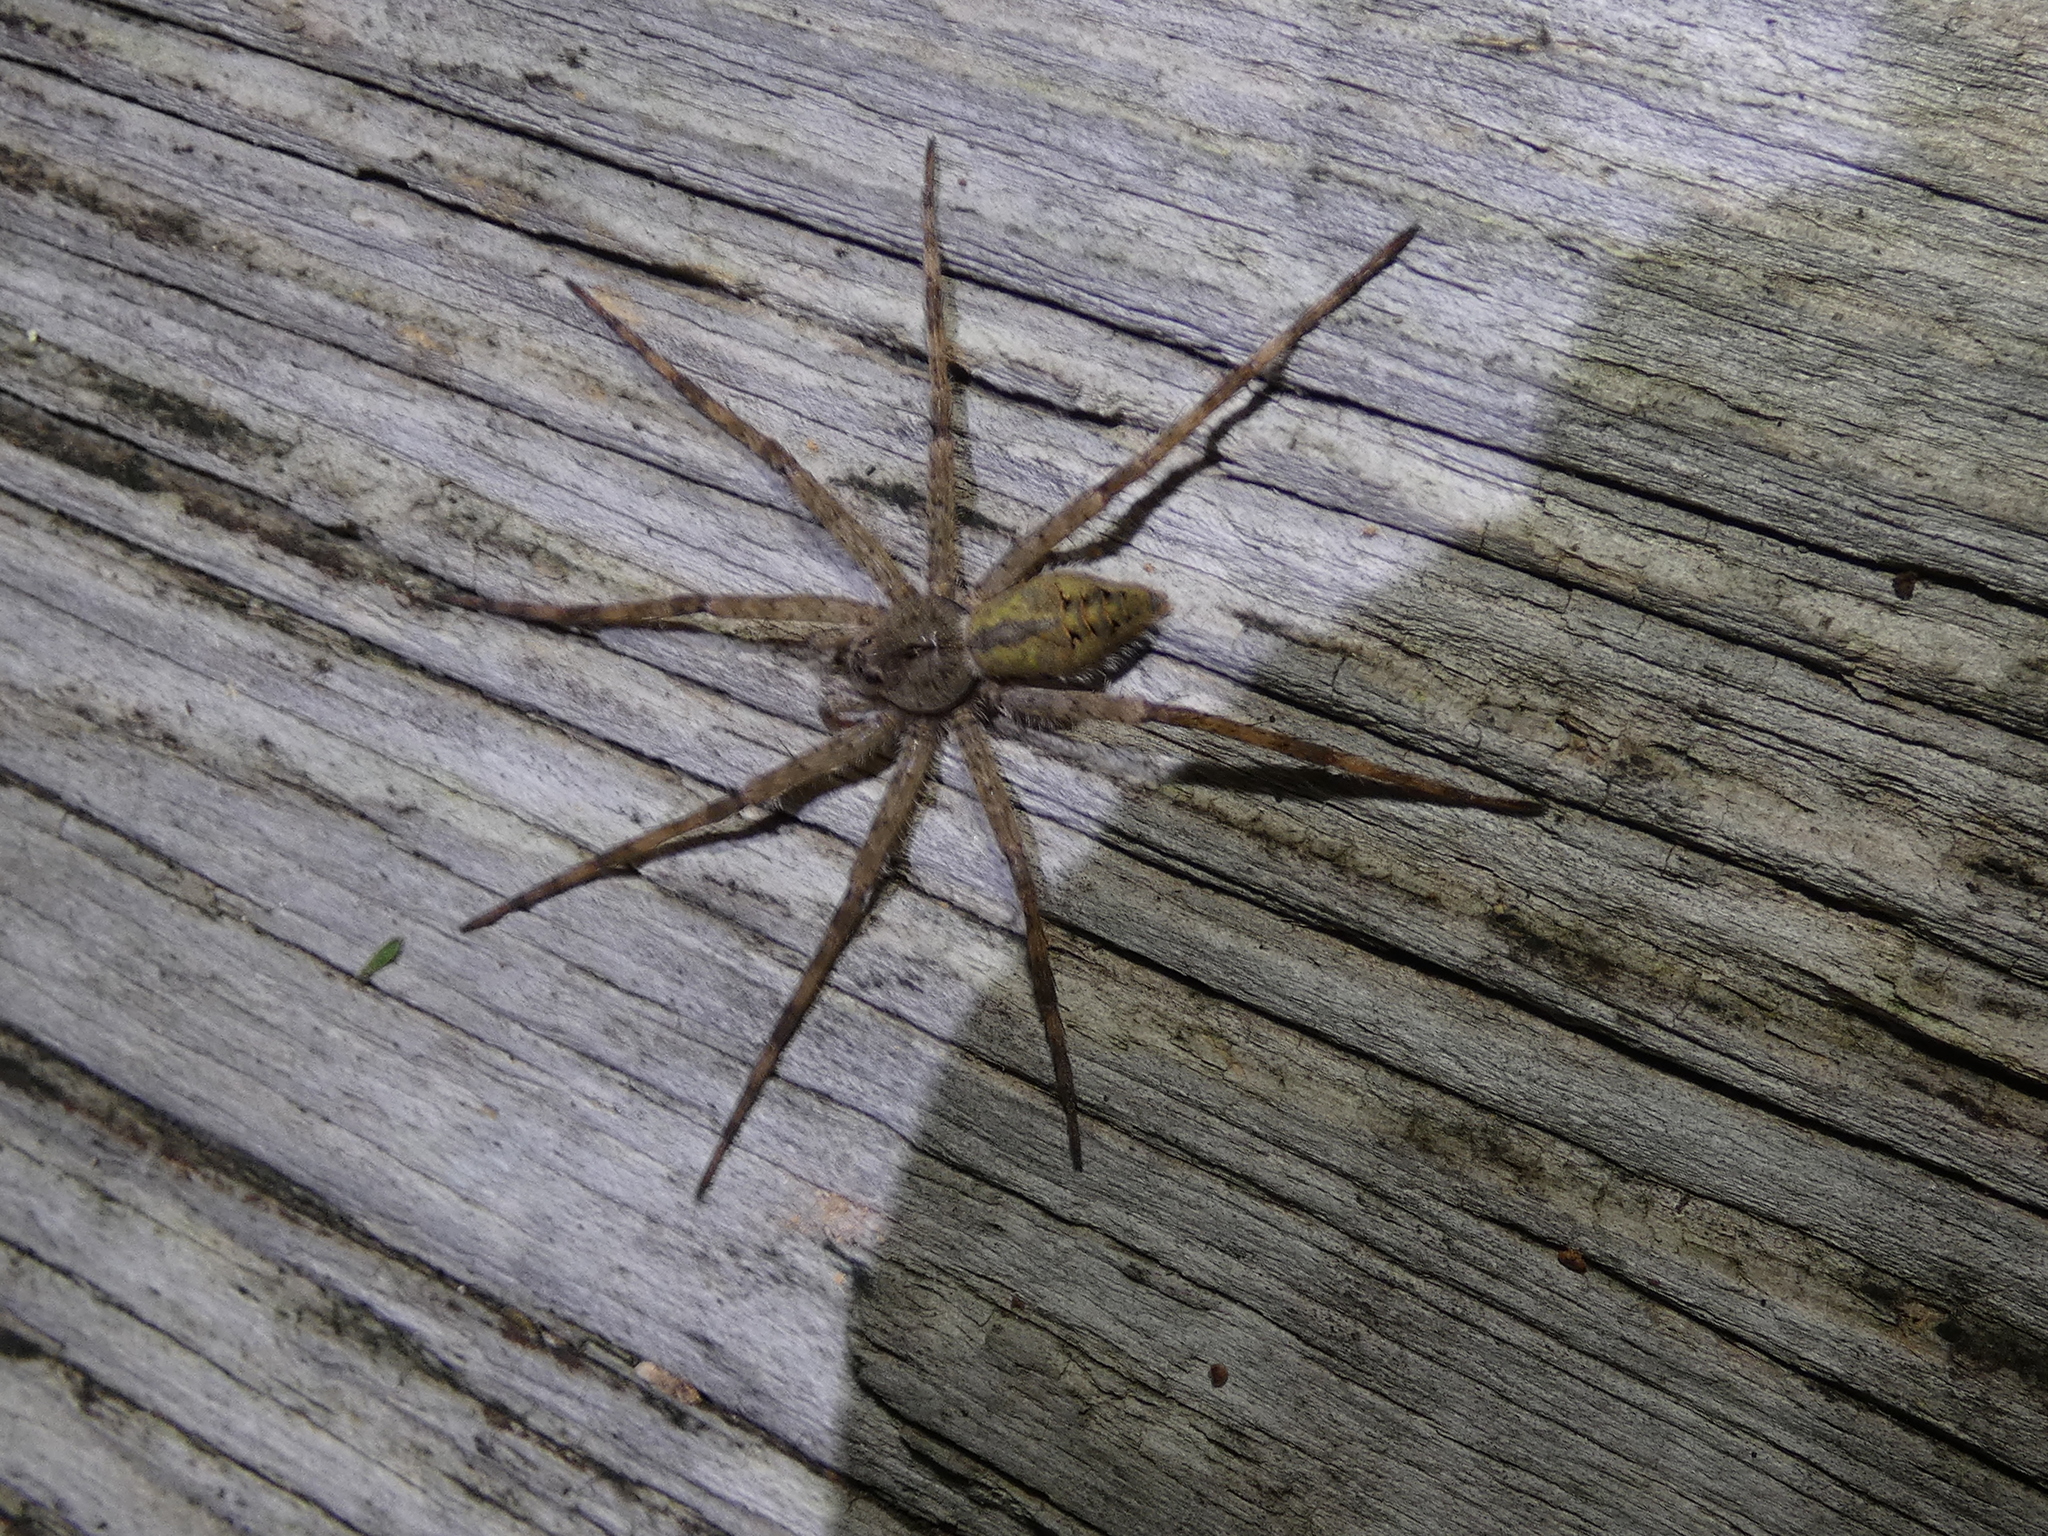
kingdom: Animalia
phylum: Arthropoda
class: Arachnida
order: Araneae
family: Pisauridae
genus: Dolomedes
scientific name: Dolomedes albineus
